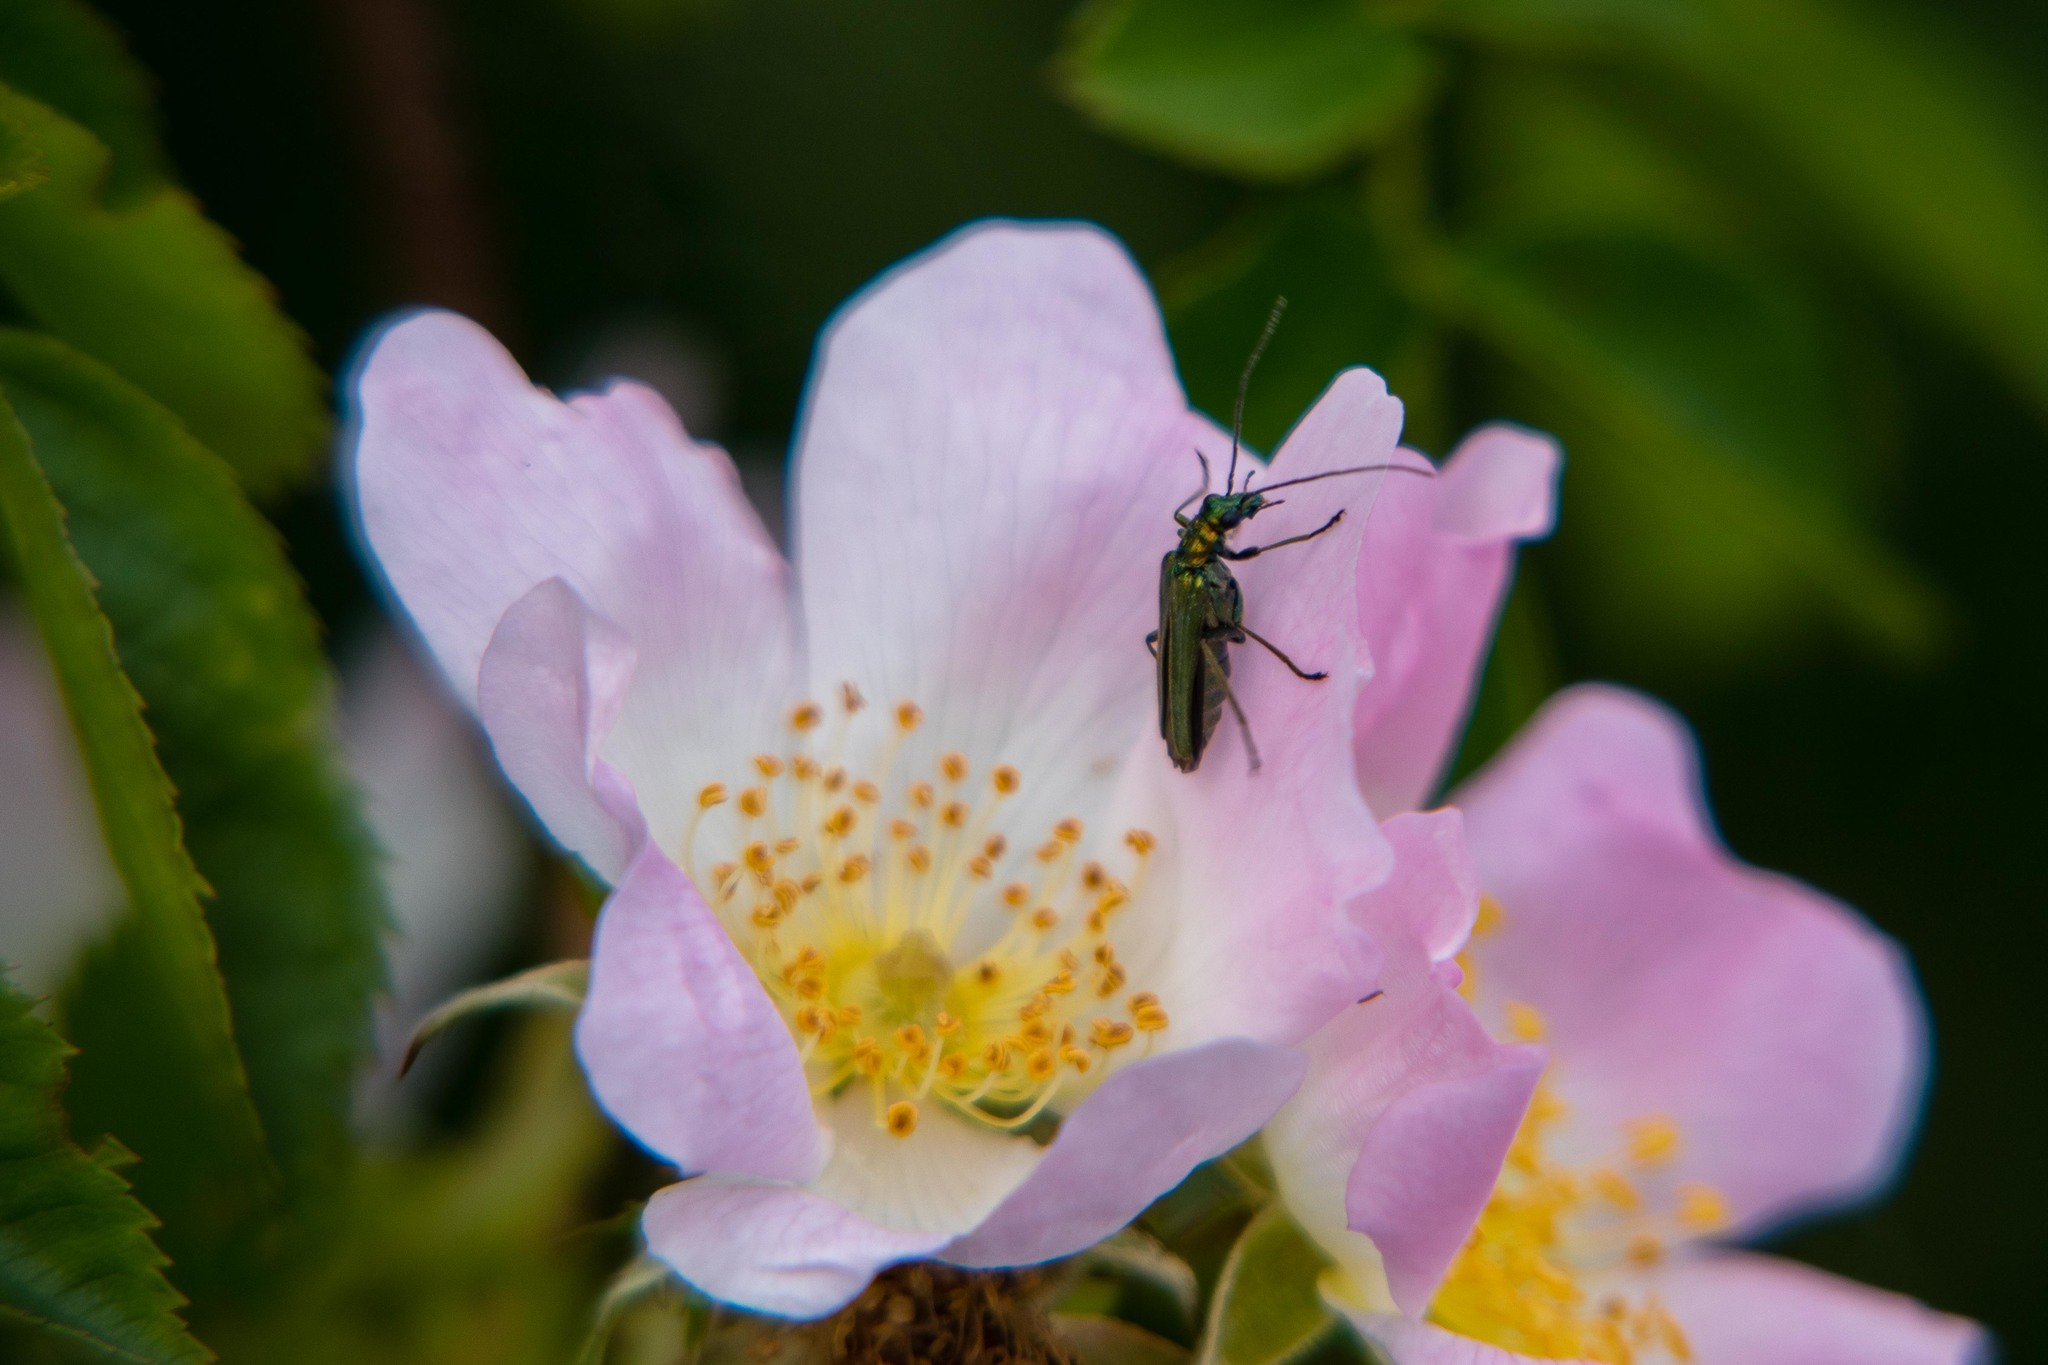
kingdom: Animalia
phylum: Arthropoda
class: Insecta
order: Coleoptera
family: Oedemeridae
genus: Oedemera
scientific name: Oedemera nobilis
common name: Swollen-thighed beetle
